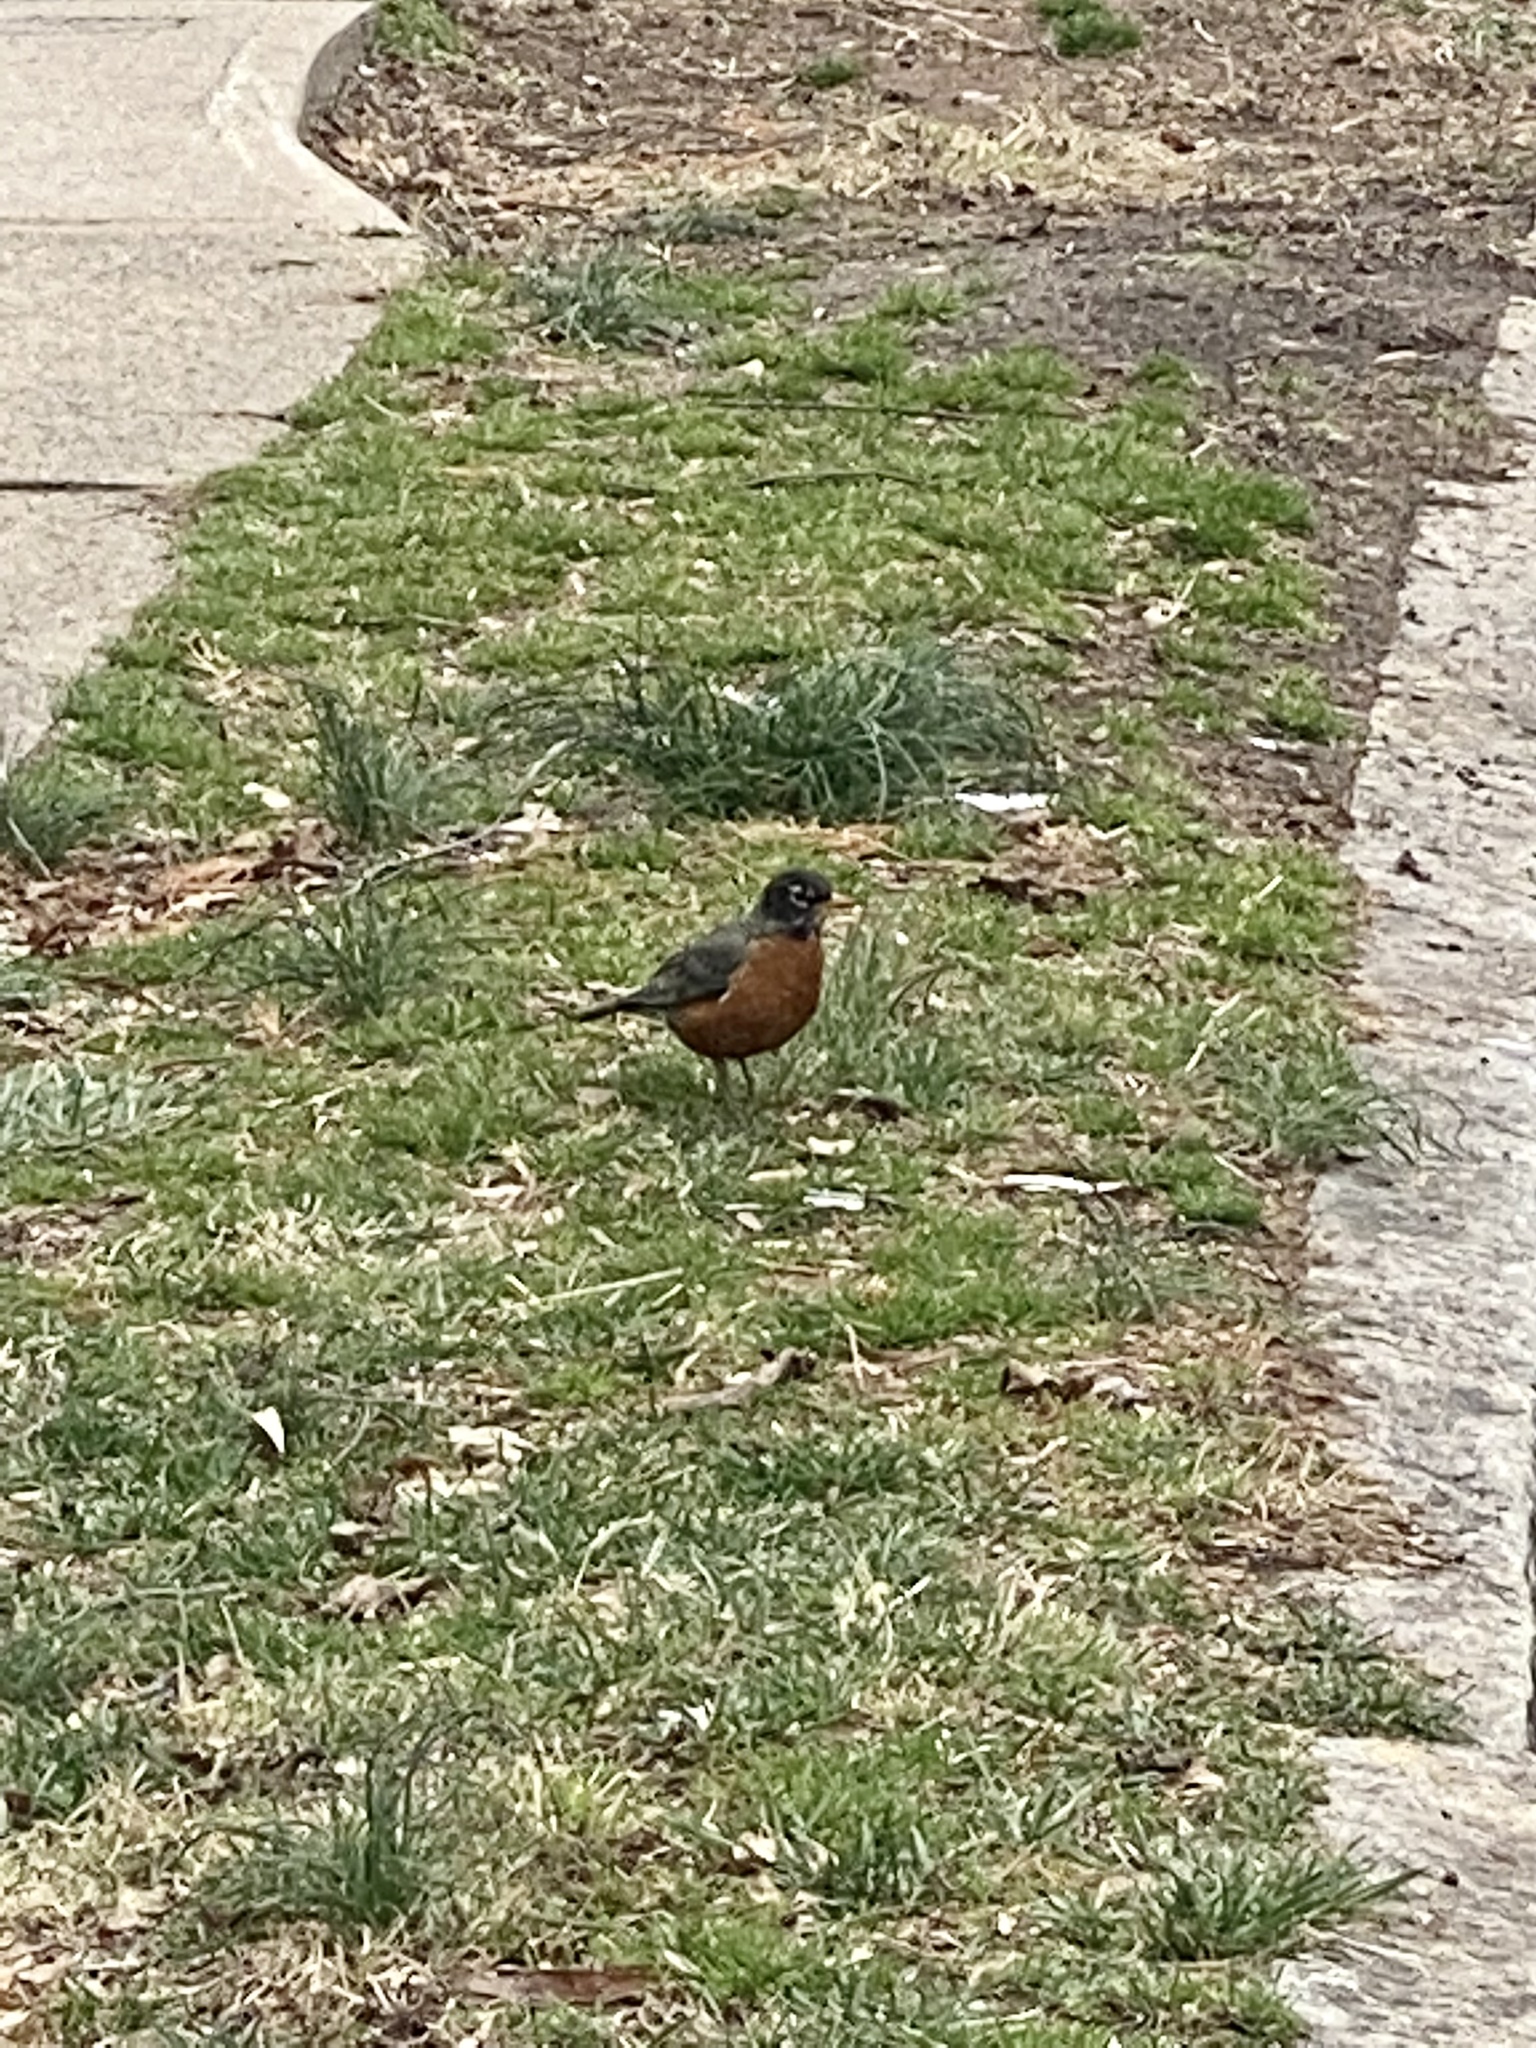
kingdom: Animalia
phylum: Chordata
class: Aves
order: Passeriformes
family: Turdidae
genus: Turdus
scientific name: Turdus migratorius
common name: American robin
